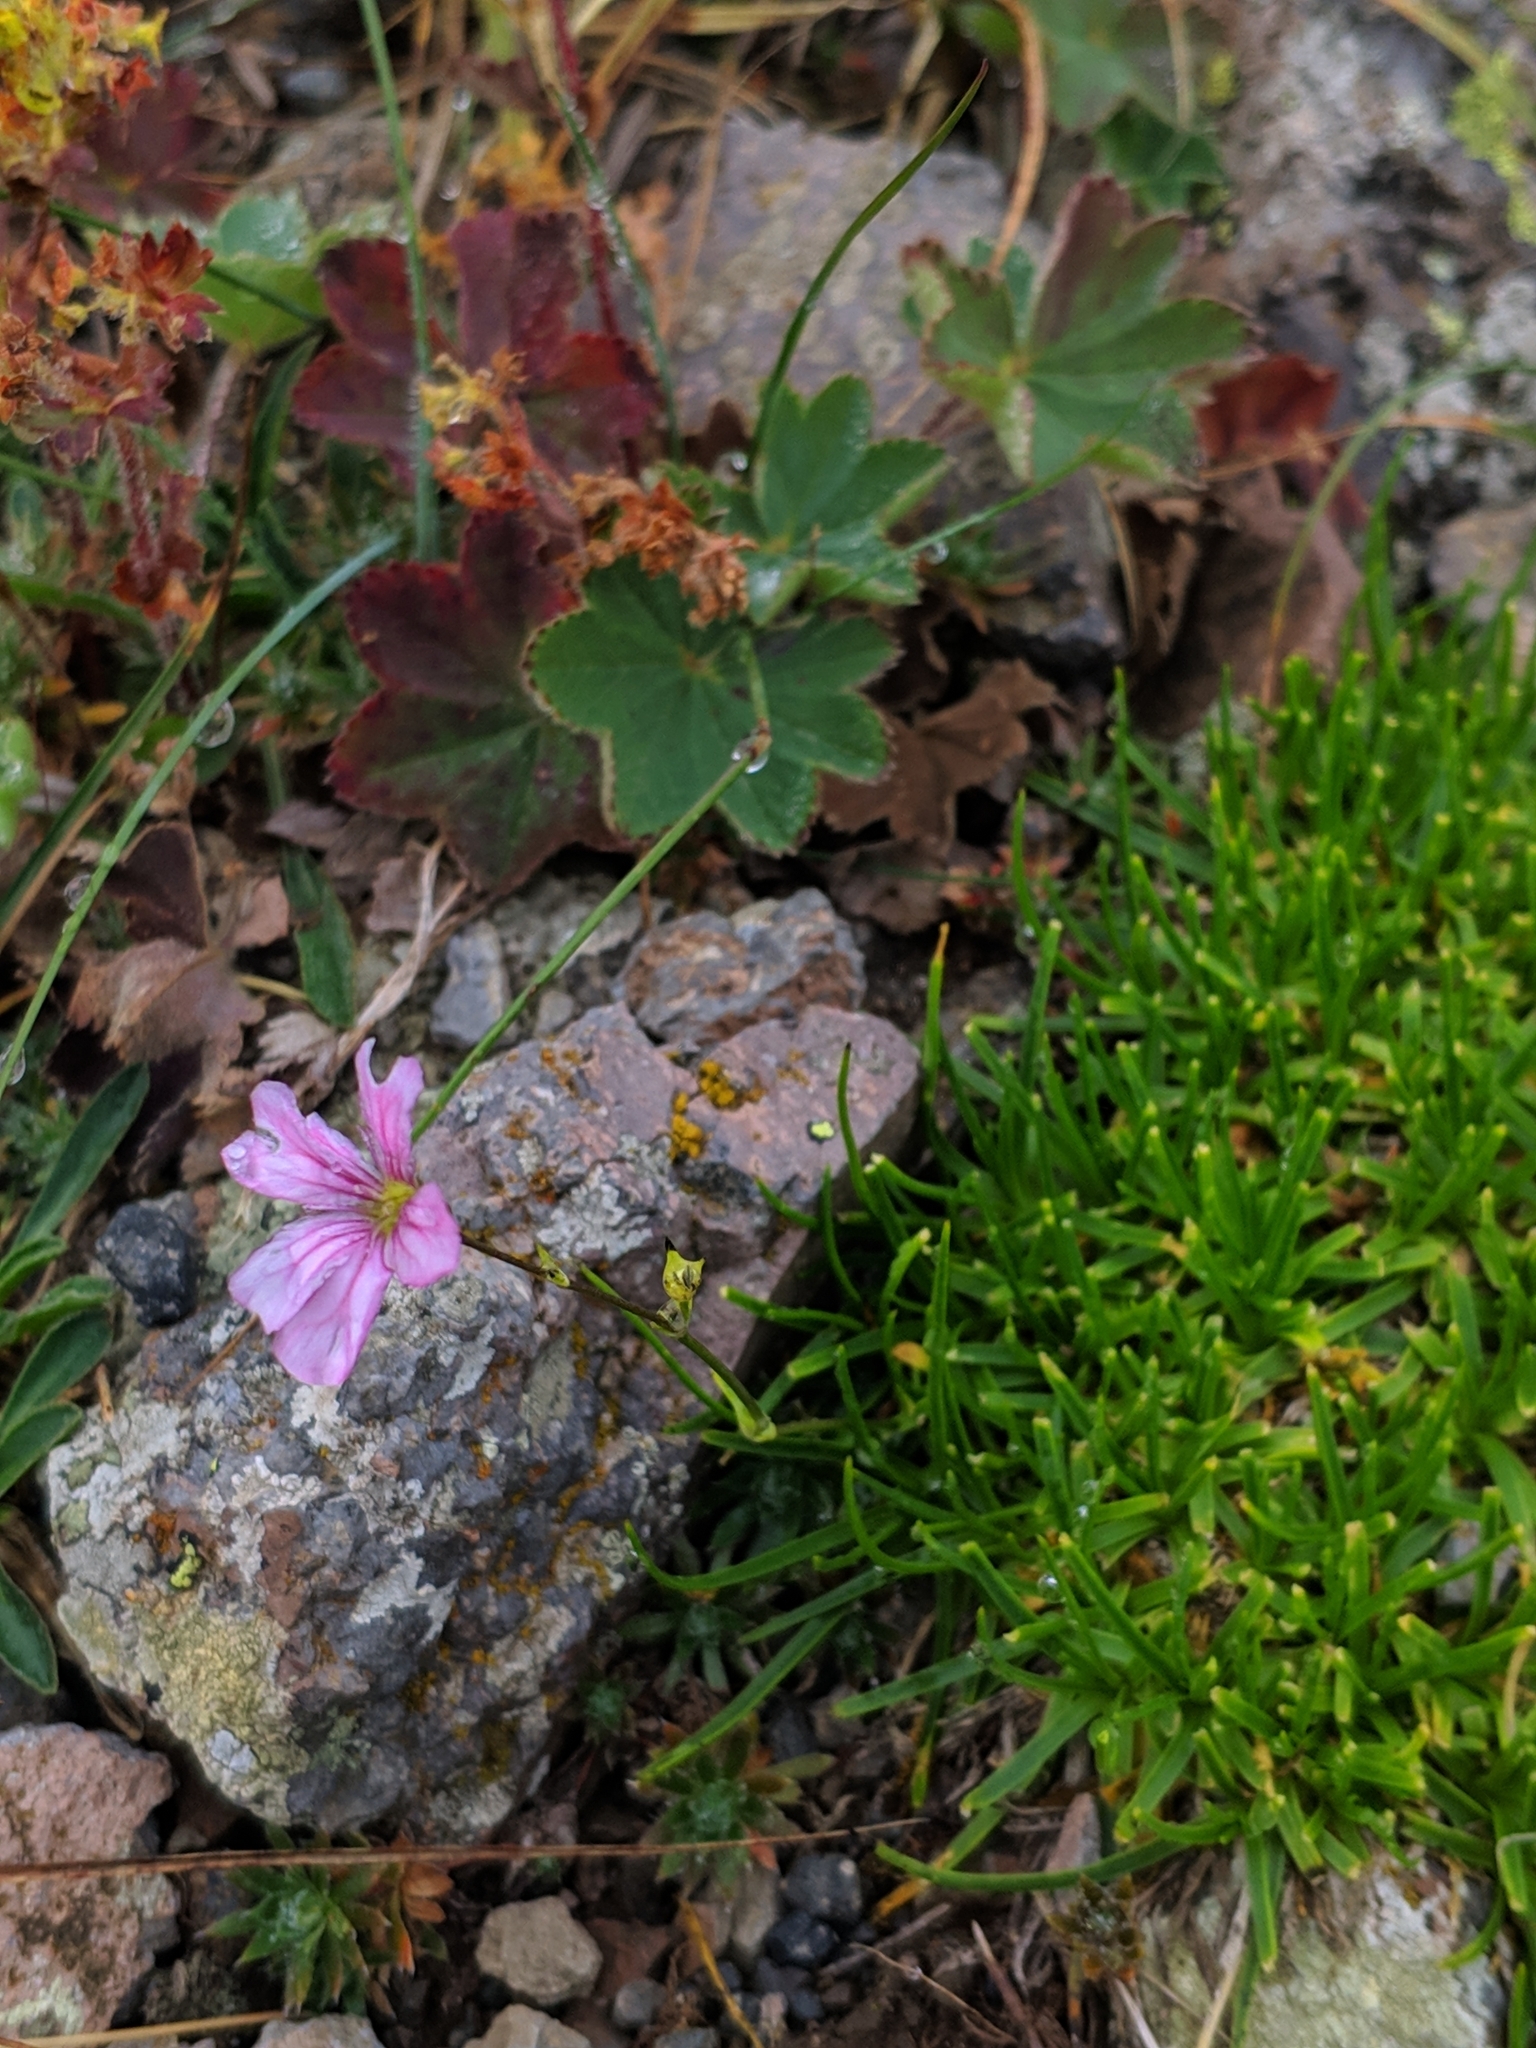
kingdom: Plantae
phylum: Tracheophyta
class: Magnoliopsida
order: Caryophyllales
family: Caryophyllaceae
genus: Gypsophila
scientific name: Gypsophila tenuifolia
